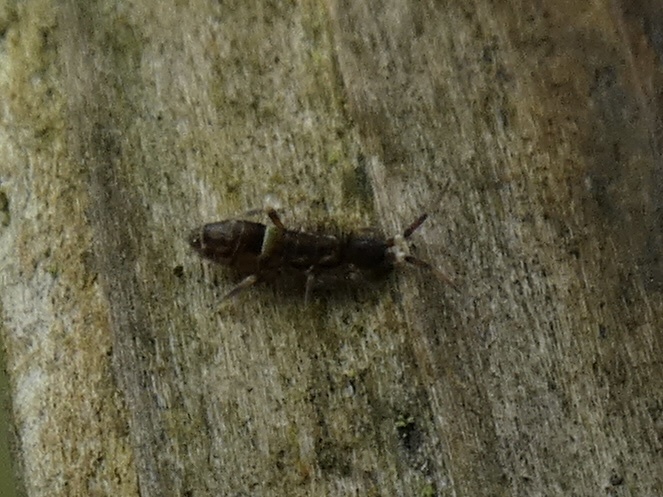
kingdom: Animalia
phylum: Arthropoda
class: Collembola
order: Entomobryomorpha
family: Orchesellidae
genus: Orchesella
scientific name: Orchesella cincta
